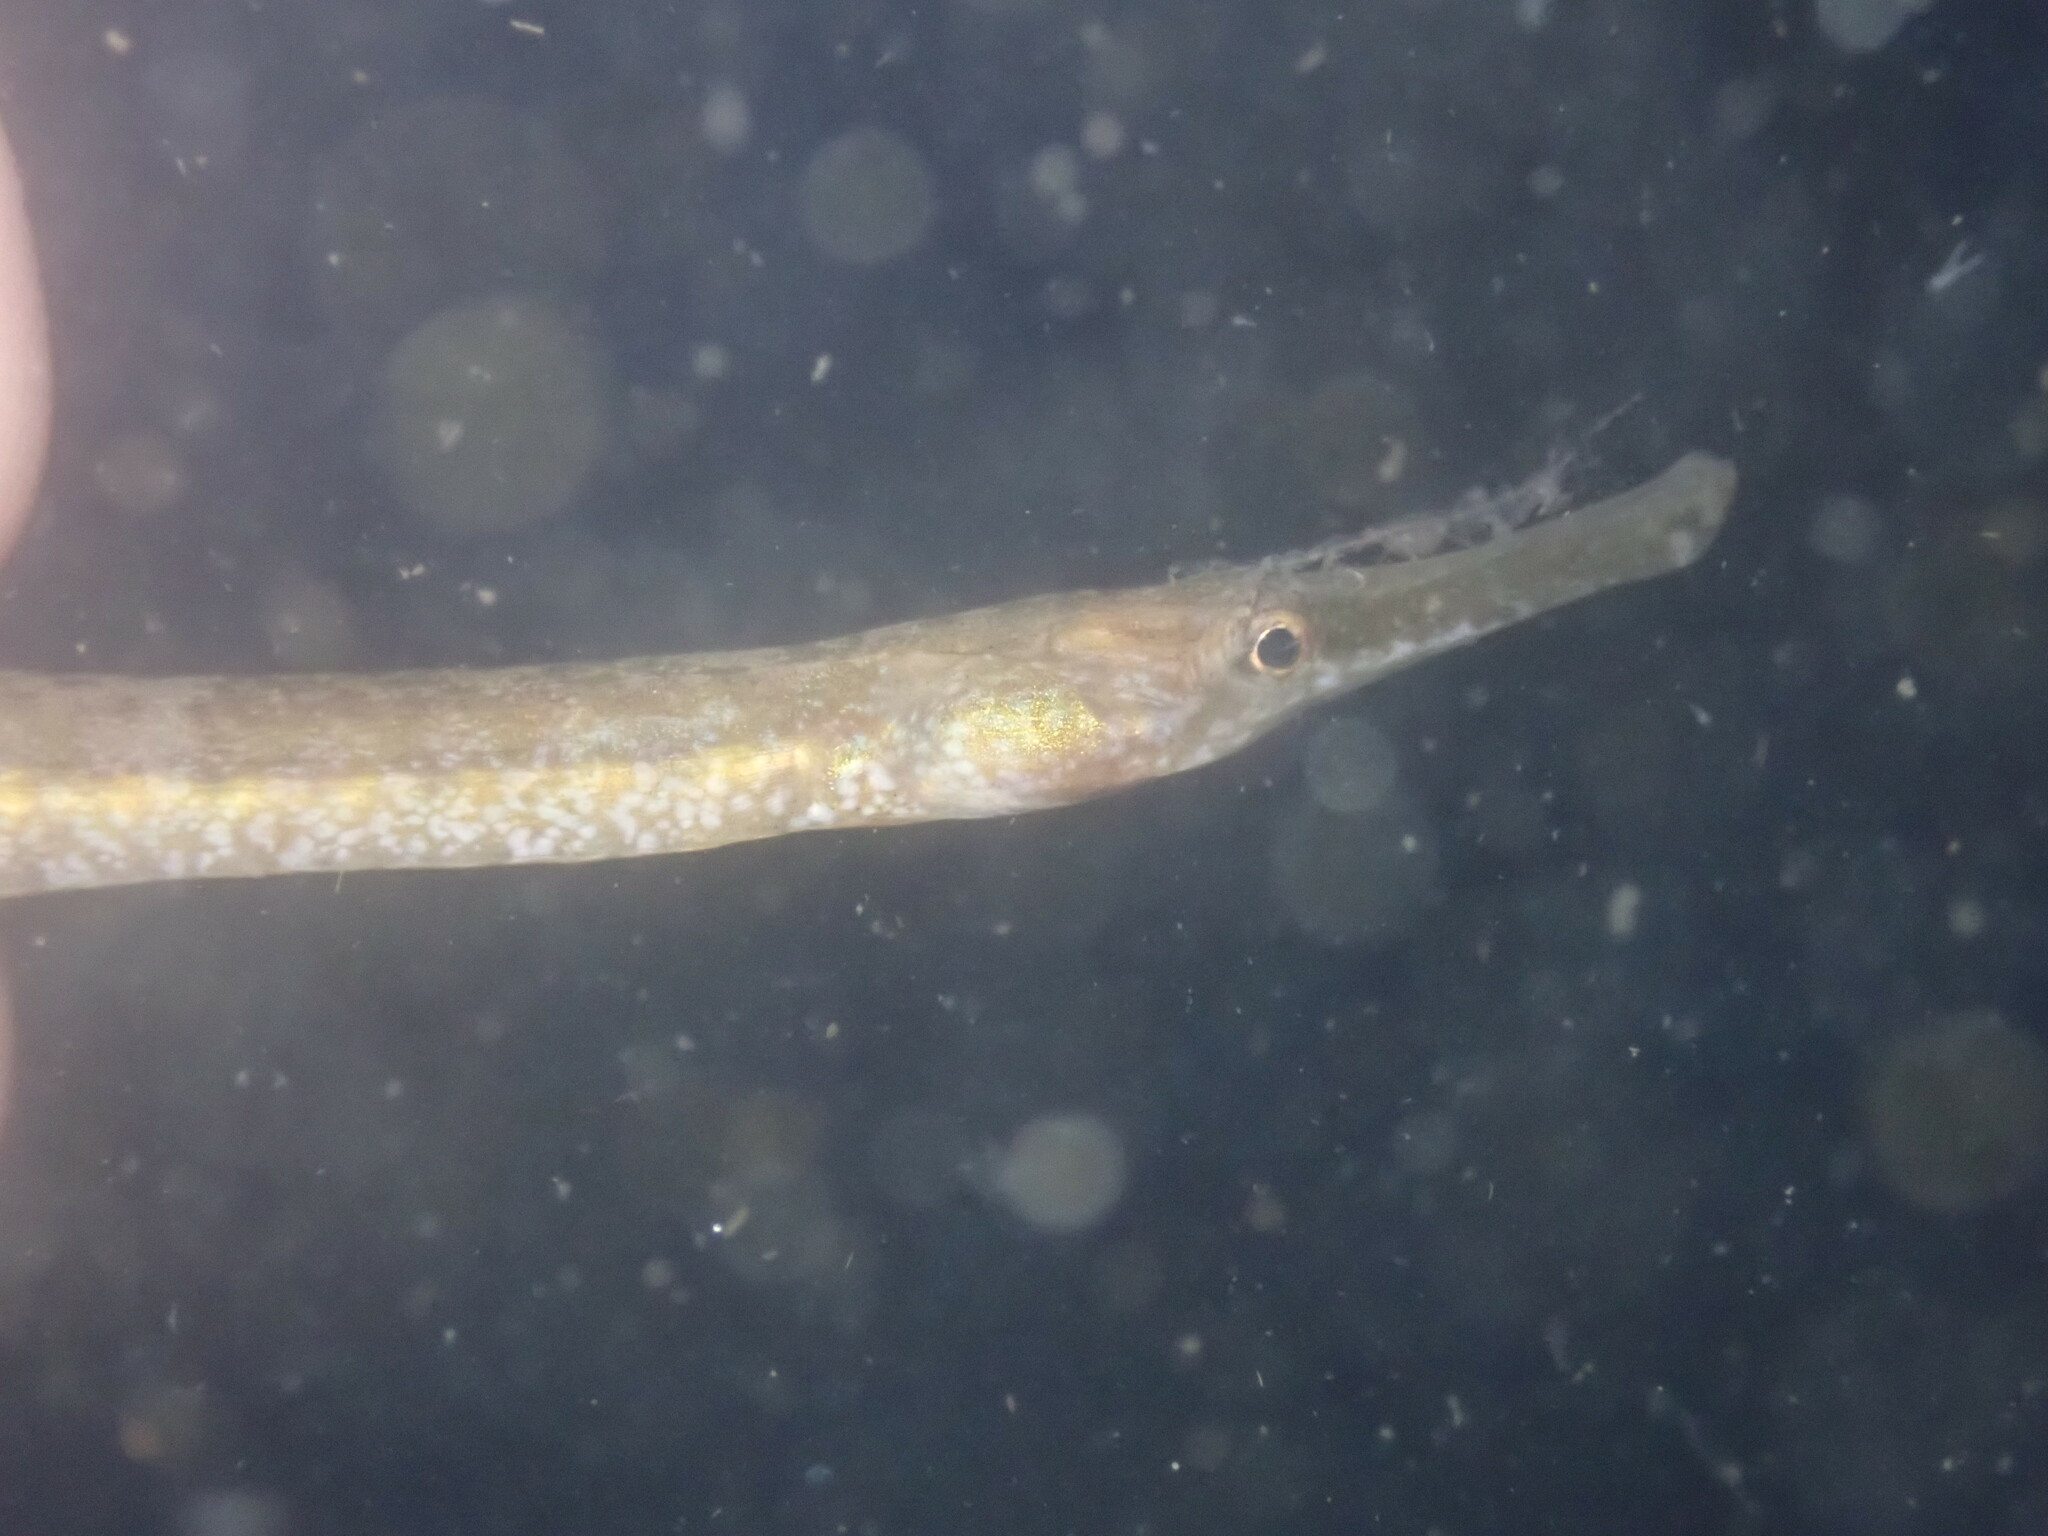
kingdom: Animalia
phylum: Chordata
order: Syngnathiformes
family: Syngnathidae
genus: Syngnathus
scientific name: Syngnathus californiensis
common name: Great pipefish
